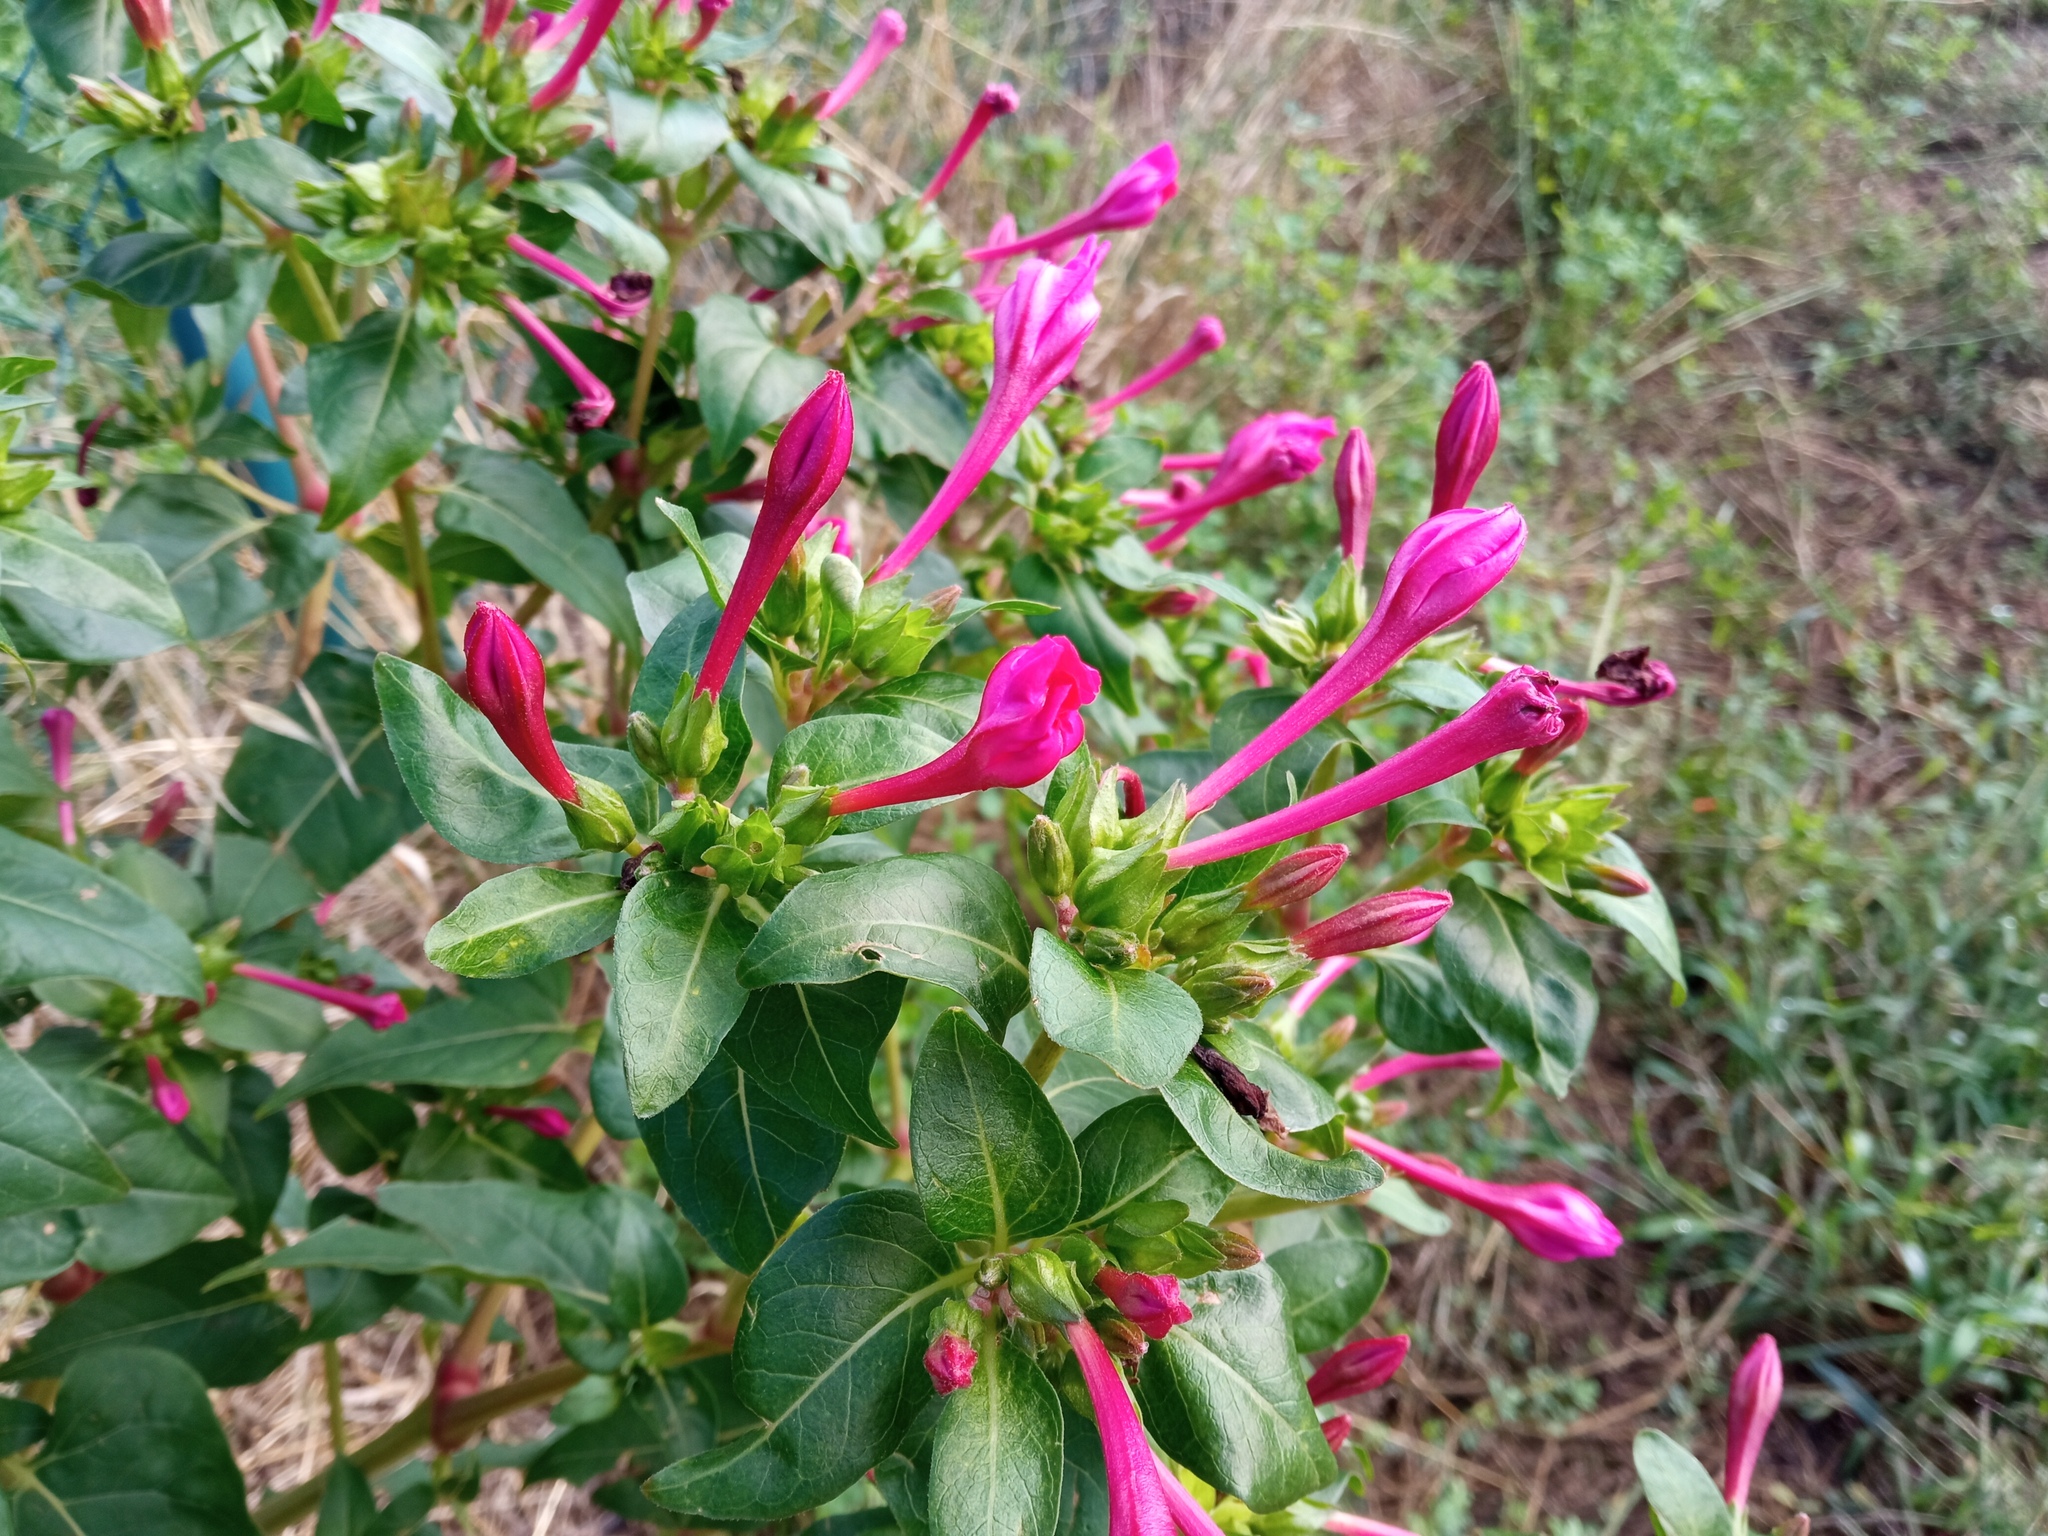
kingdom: Plantae
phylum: Tracheophyta
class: Magnoliopsida
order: Caryophyllales
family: Nyctaginaceae
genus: Mirabilis
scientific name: Mirabilis jalapa
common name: Marvel-of-peru
